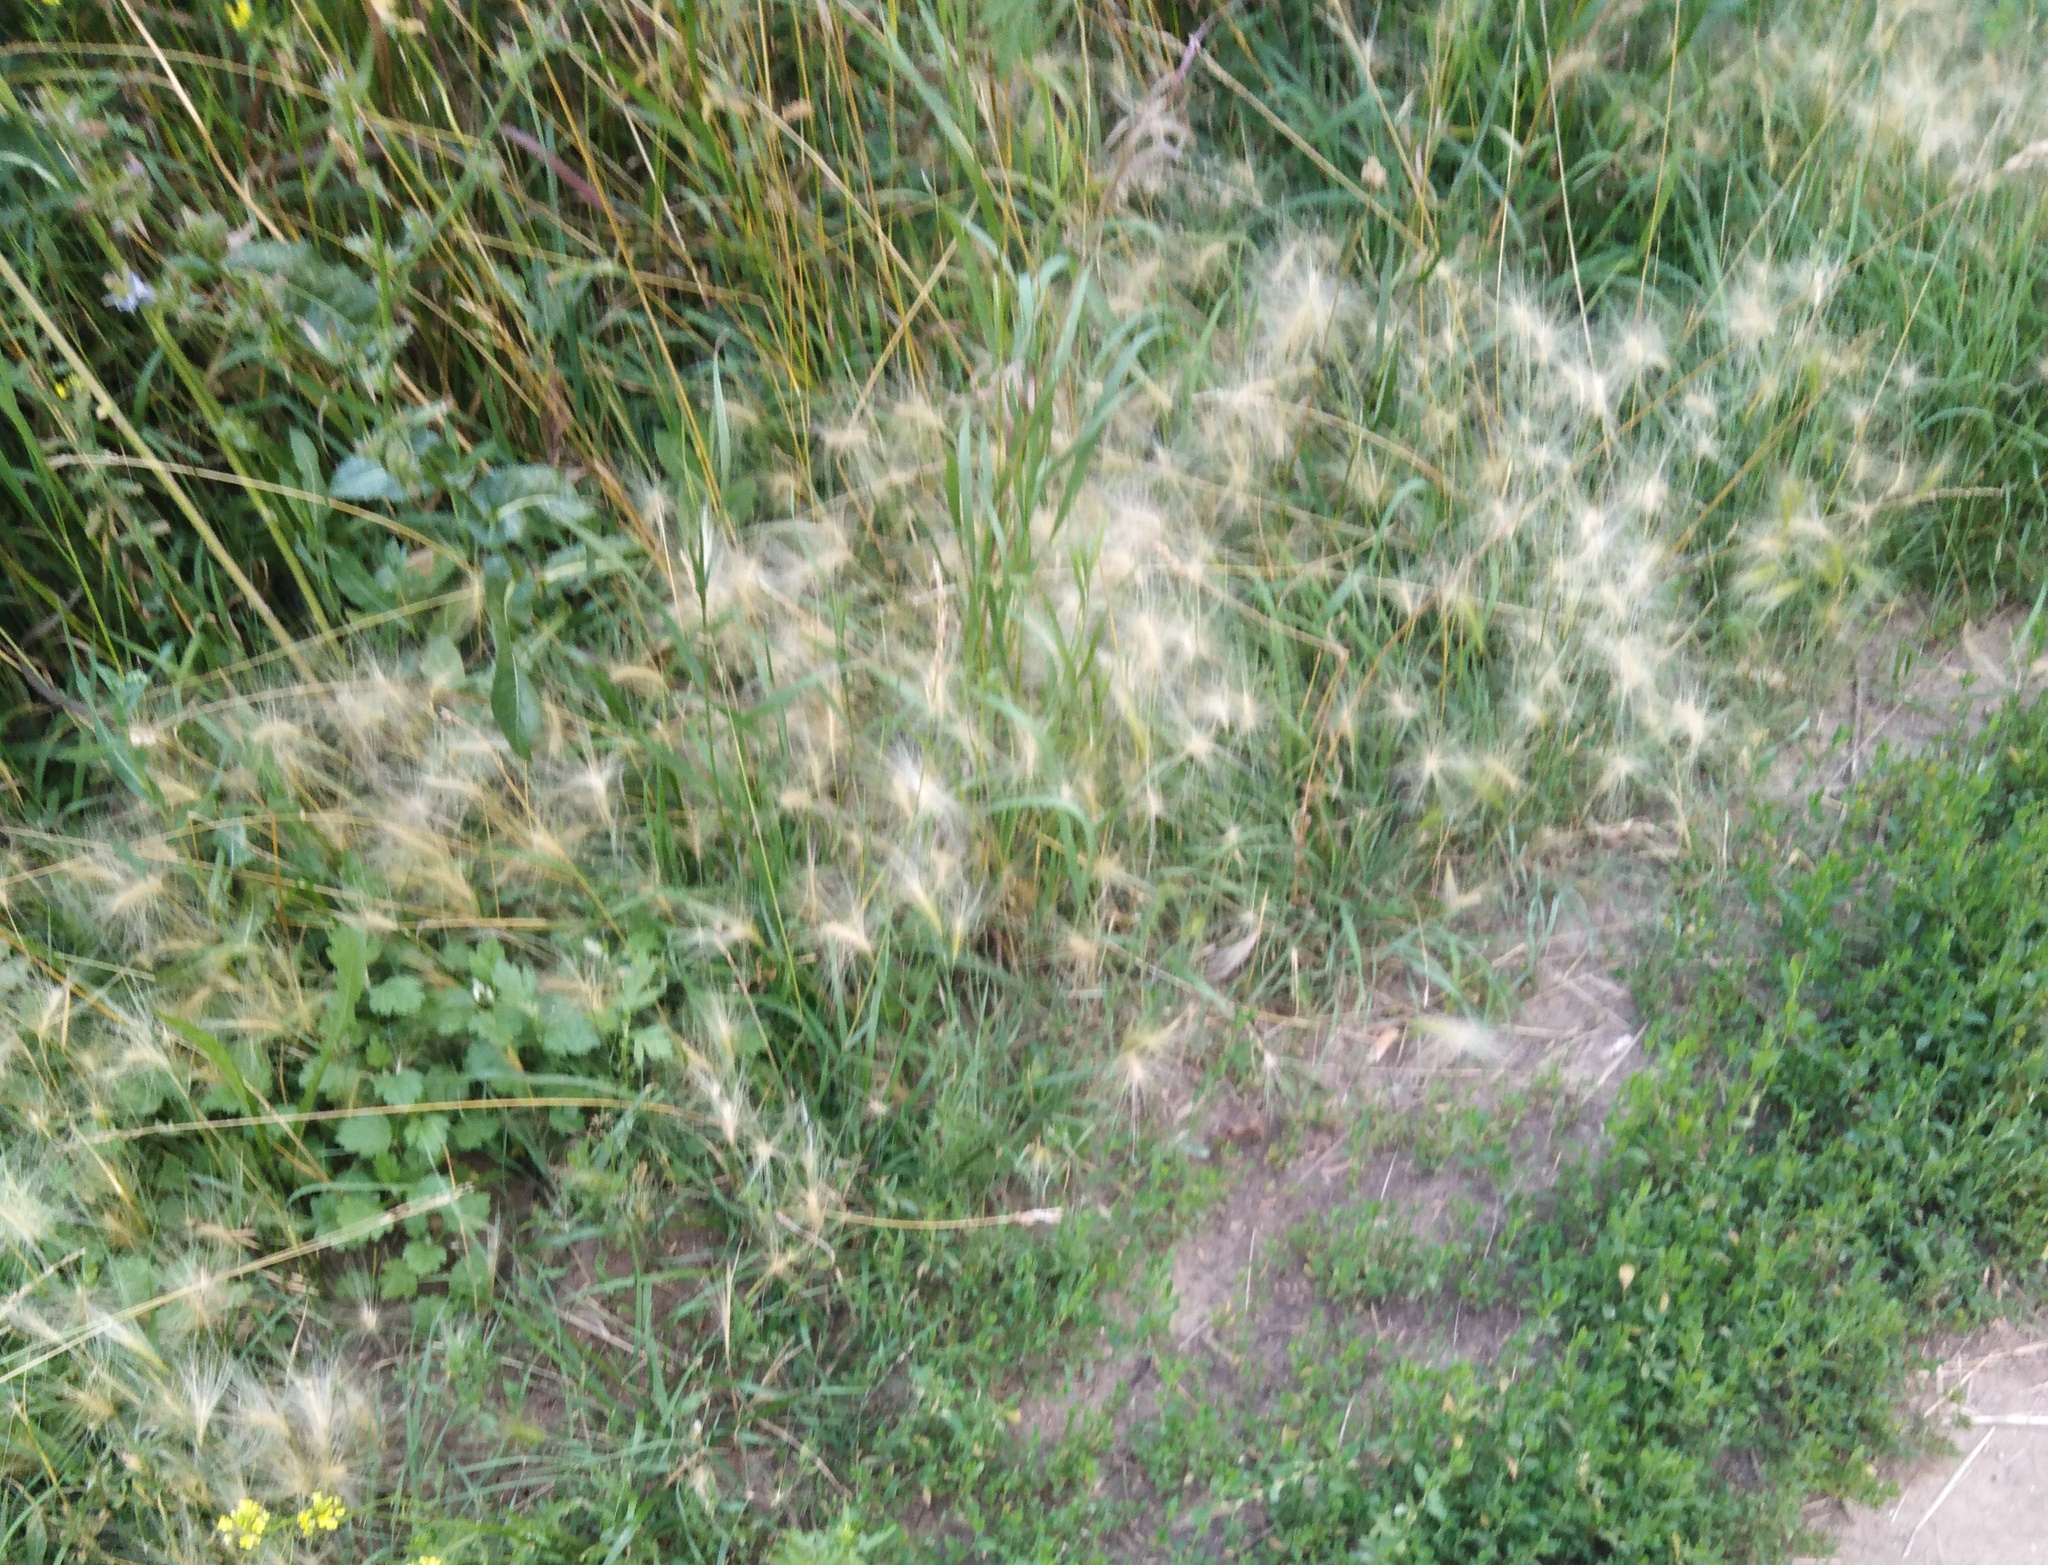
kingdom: Plantae
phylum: Tracheophyta
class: Liliopsida
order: Poales
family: Poaceae
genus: Hordeum
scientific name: Hordeum jubatum
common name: Foxtail barley
